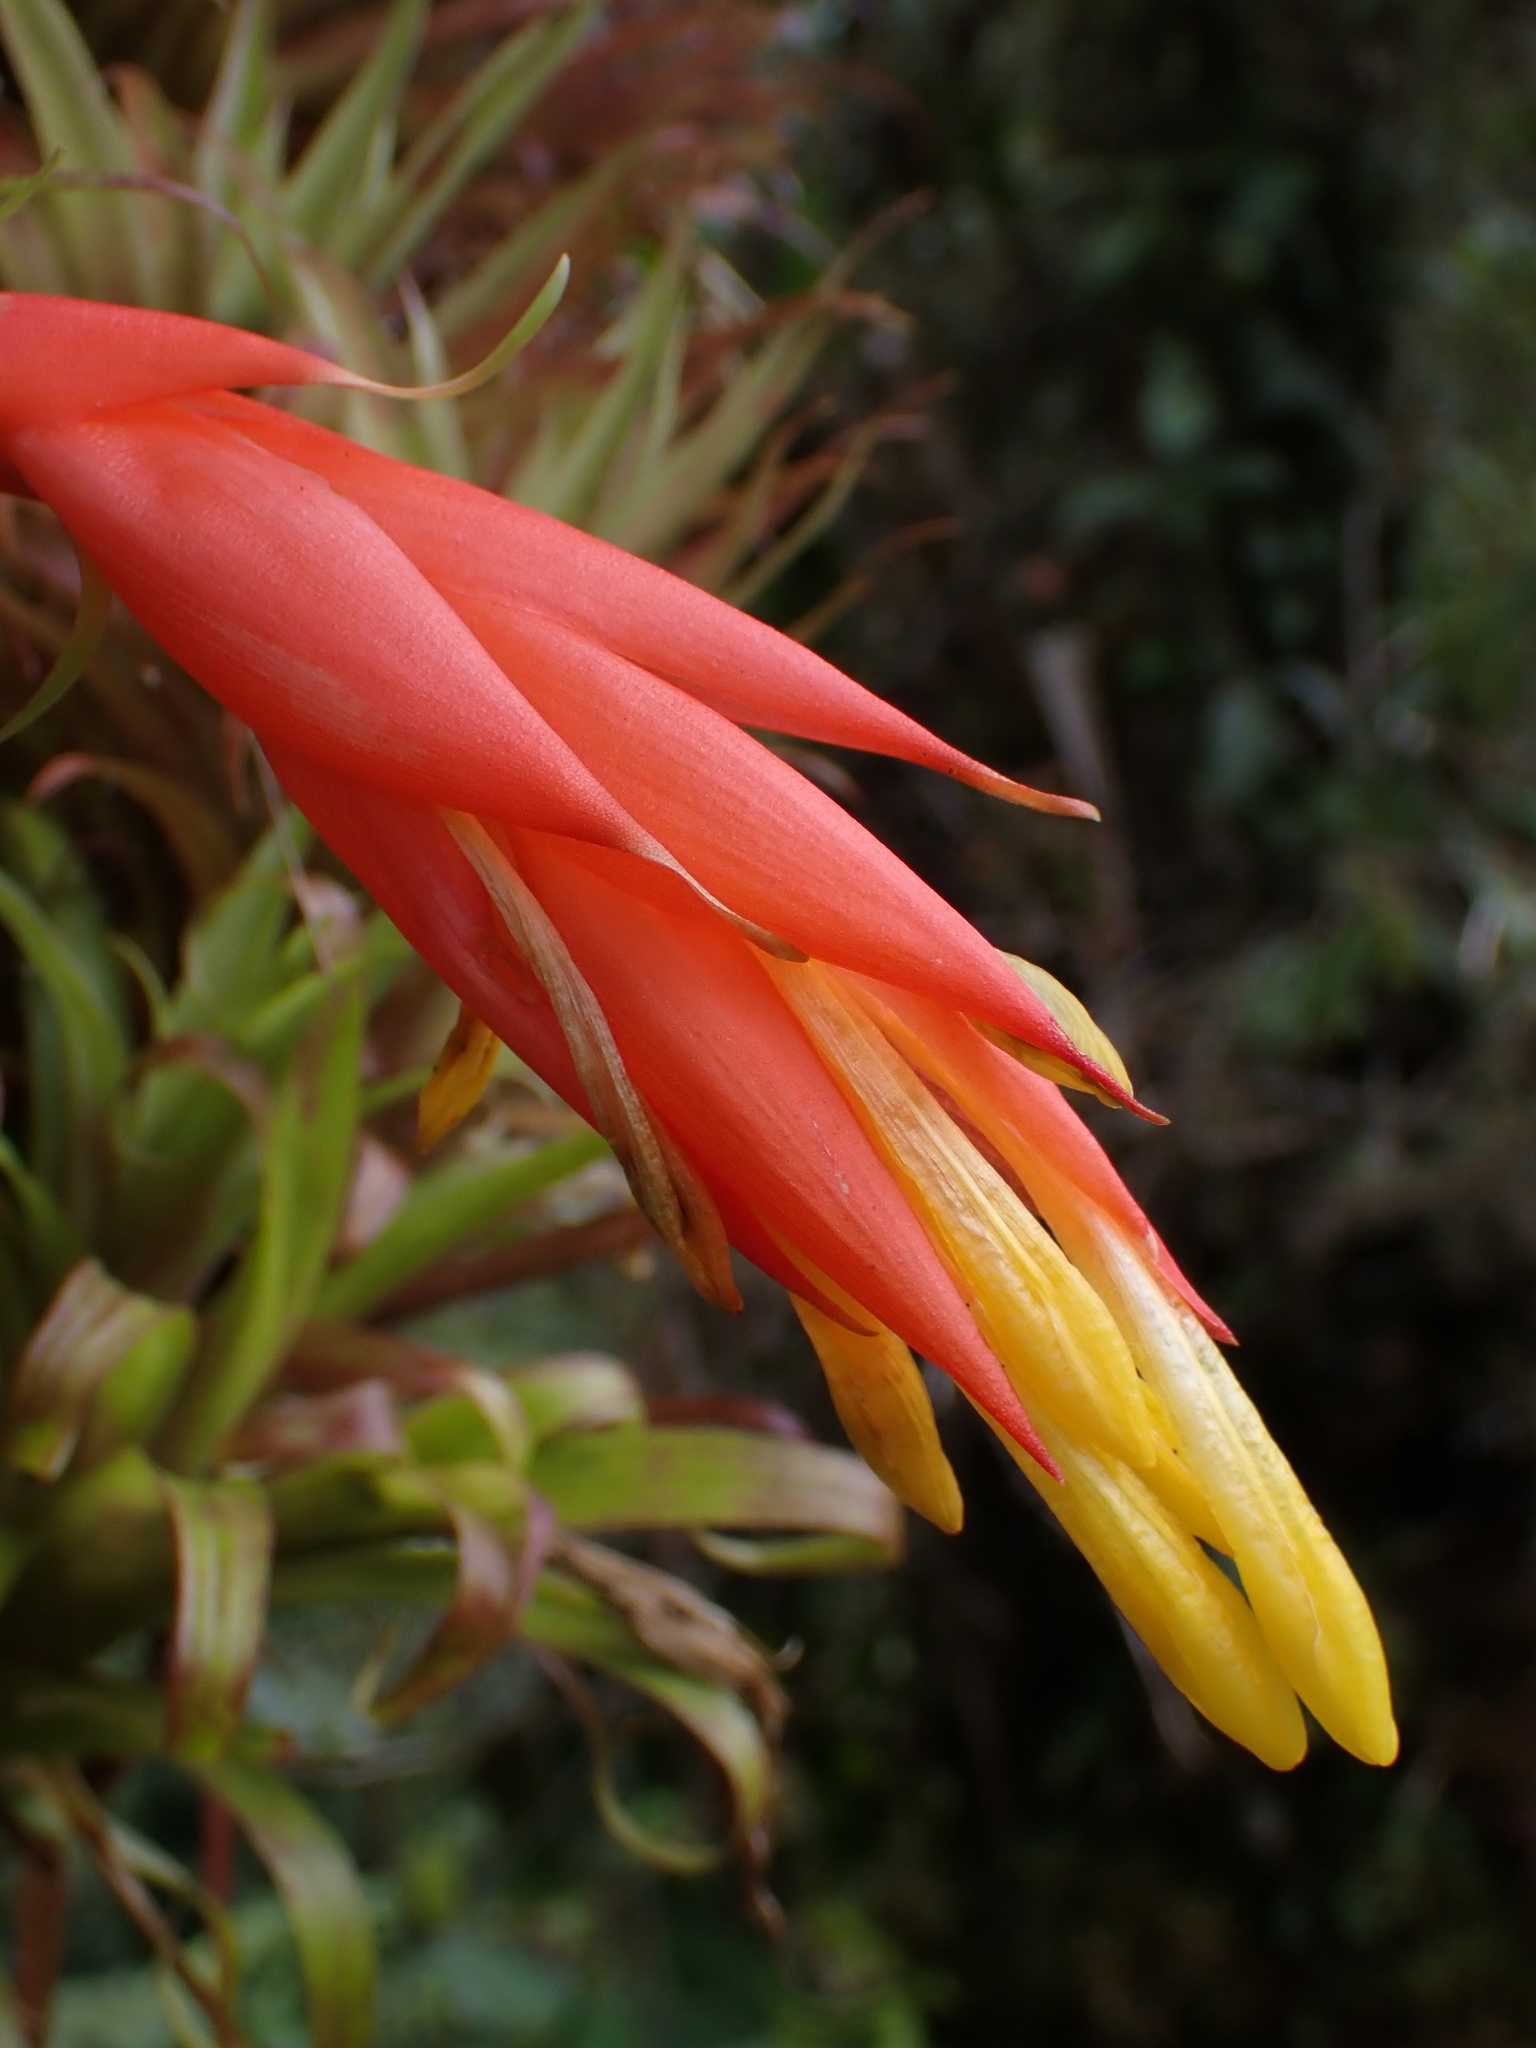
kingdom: Plantae
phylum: Tracheophyta
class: Liliopsida
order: Poales
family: Bromeliaceae
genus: Guzmania
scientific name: Guzmania angustifolia
